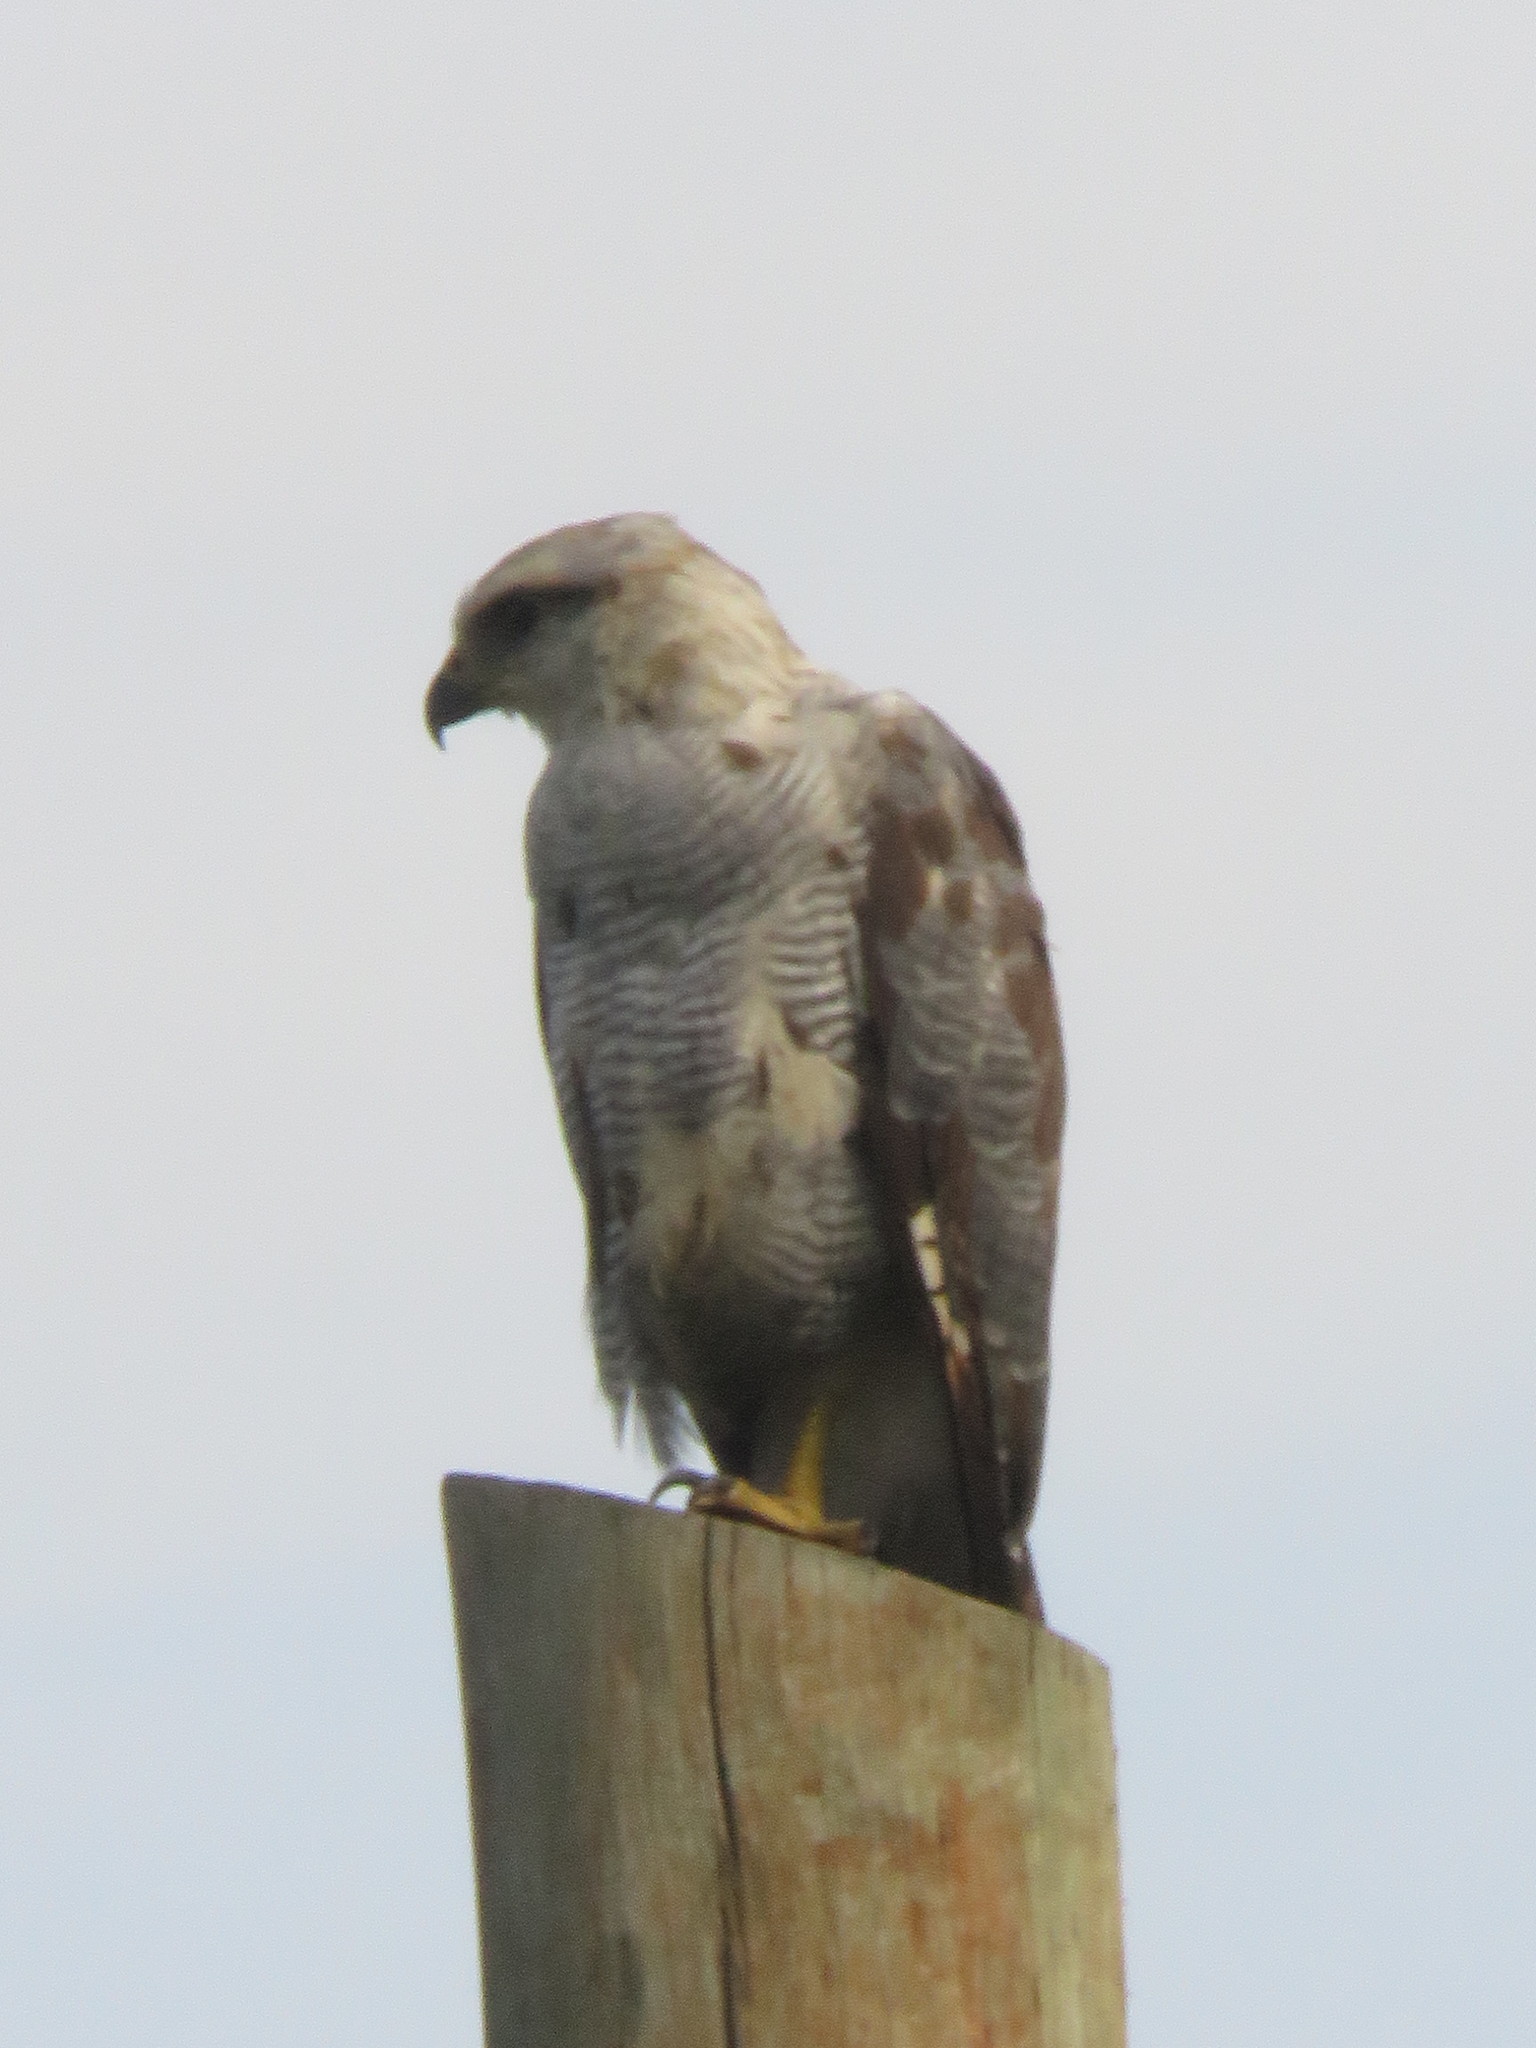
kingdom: Animalia
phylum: Chordata
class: Aves
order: Accipitriformes
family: Accipitridae
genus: Buteo
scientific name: Buteo nitidus
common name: Grey-lined hawk
